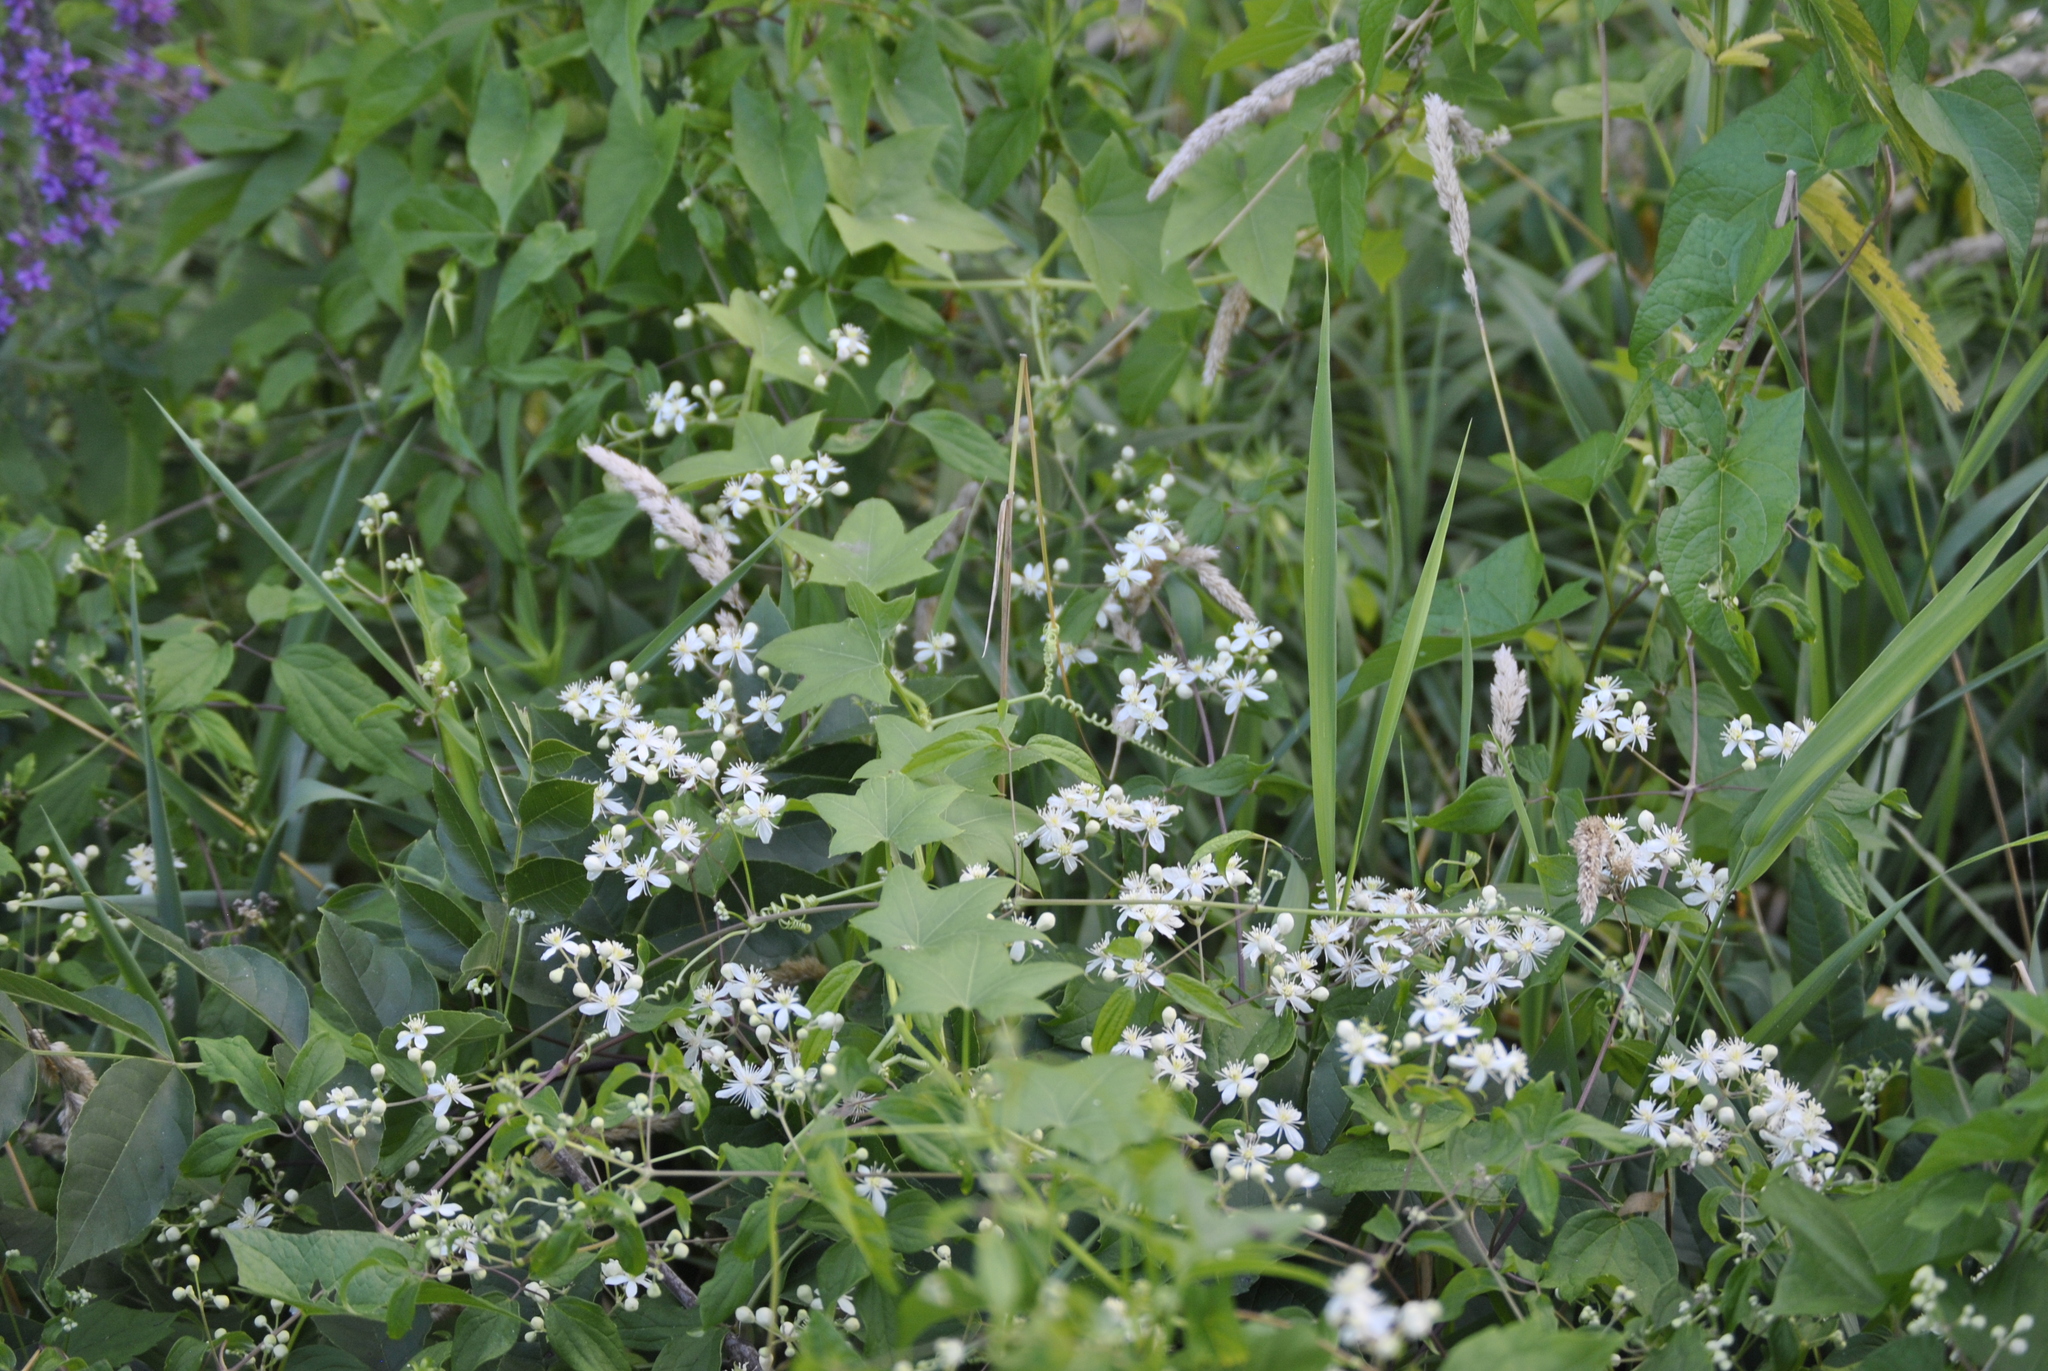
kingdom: Plantae
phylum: Tracheophyta
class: Magnoliopsida
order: Cucurbitales
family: Cucurbitaceae
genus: Echinocystis
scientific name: Echinocystis lobata
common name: Wild cucumber
